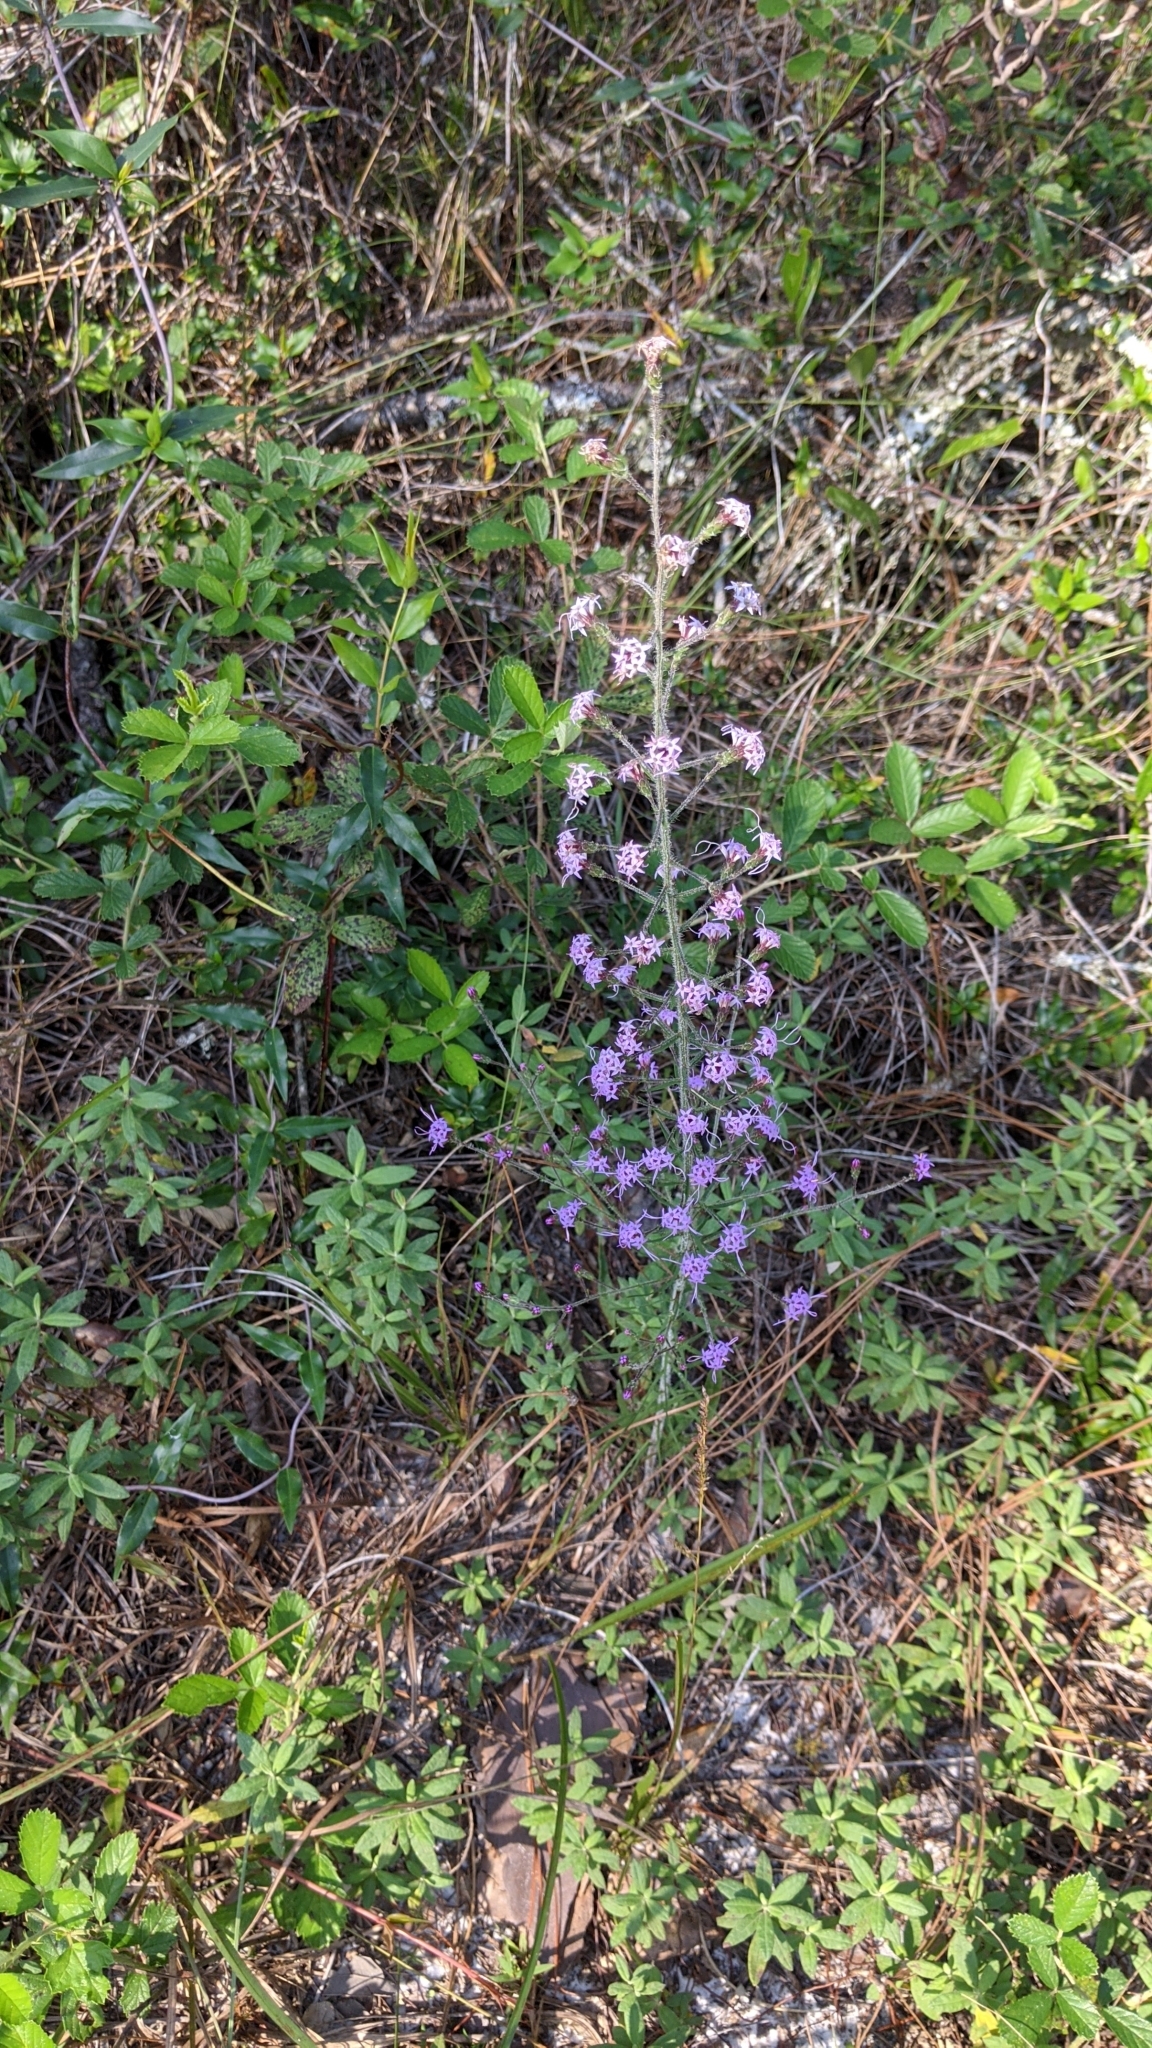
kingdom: Plantae
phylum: Tracheophyta
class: Magnoliopsida
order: Asterales
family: Asteraceae
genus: Liatris
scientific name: Liatris gracilis
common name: Slender gayfeather
